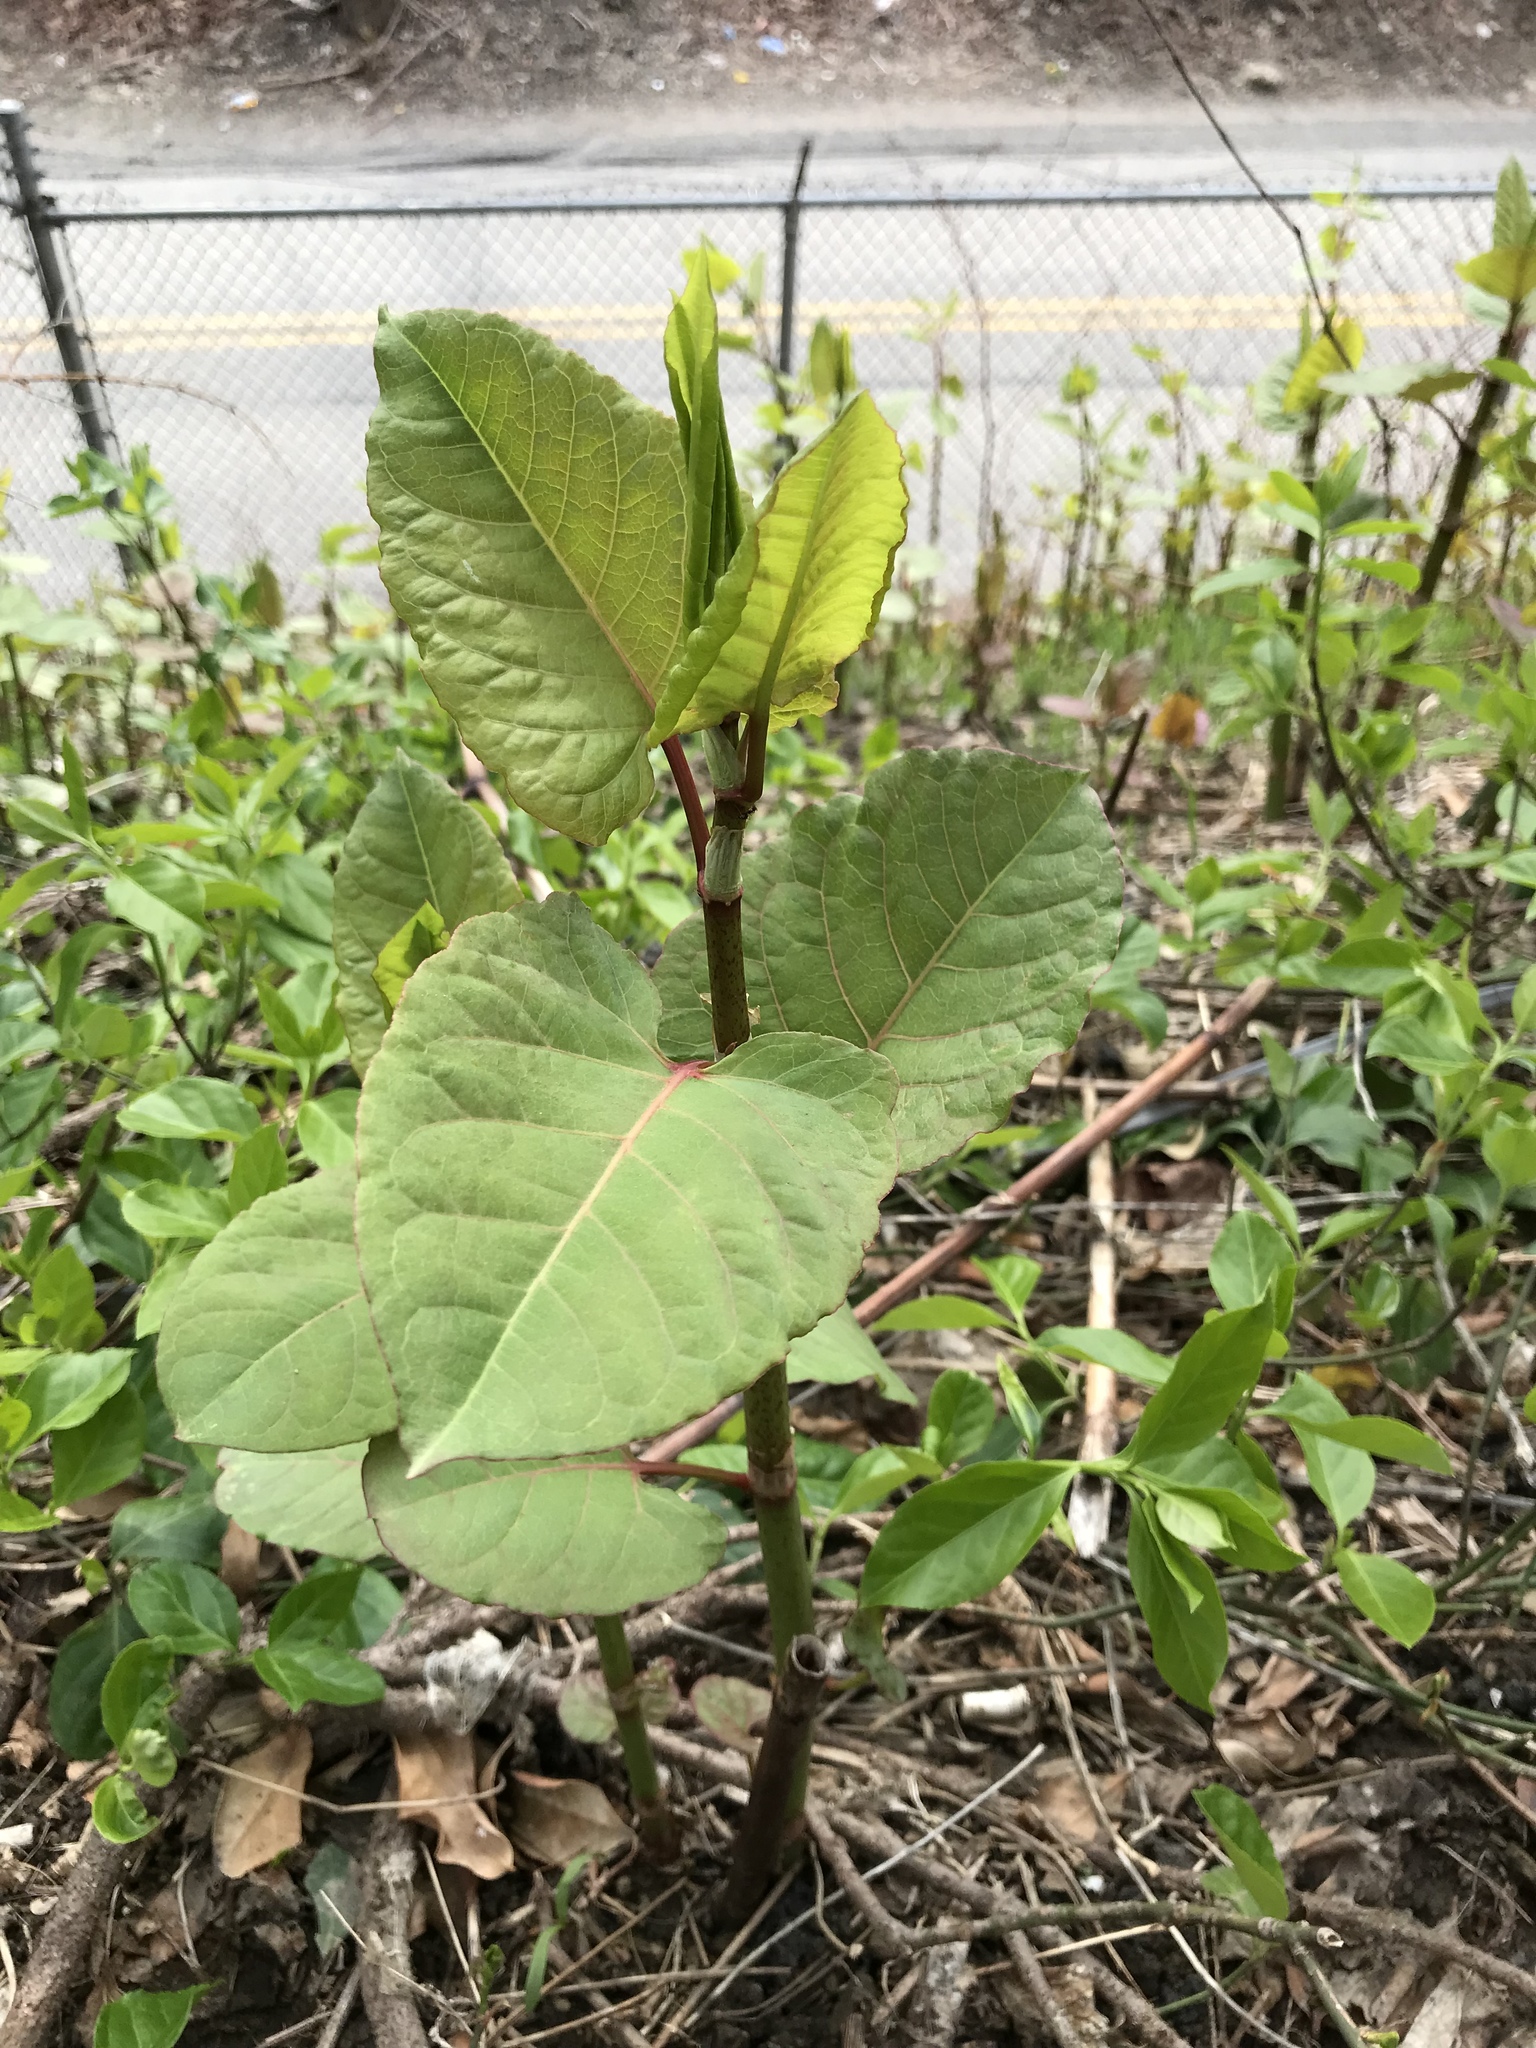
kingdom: Plantae
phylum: Tracheophyta
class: Magnoliopsida
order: Caryophyllales
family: Polygonaceae
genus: Reynoutria
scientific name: Reynoutria bohemica
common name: Bohemian knotweed
